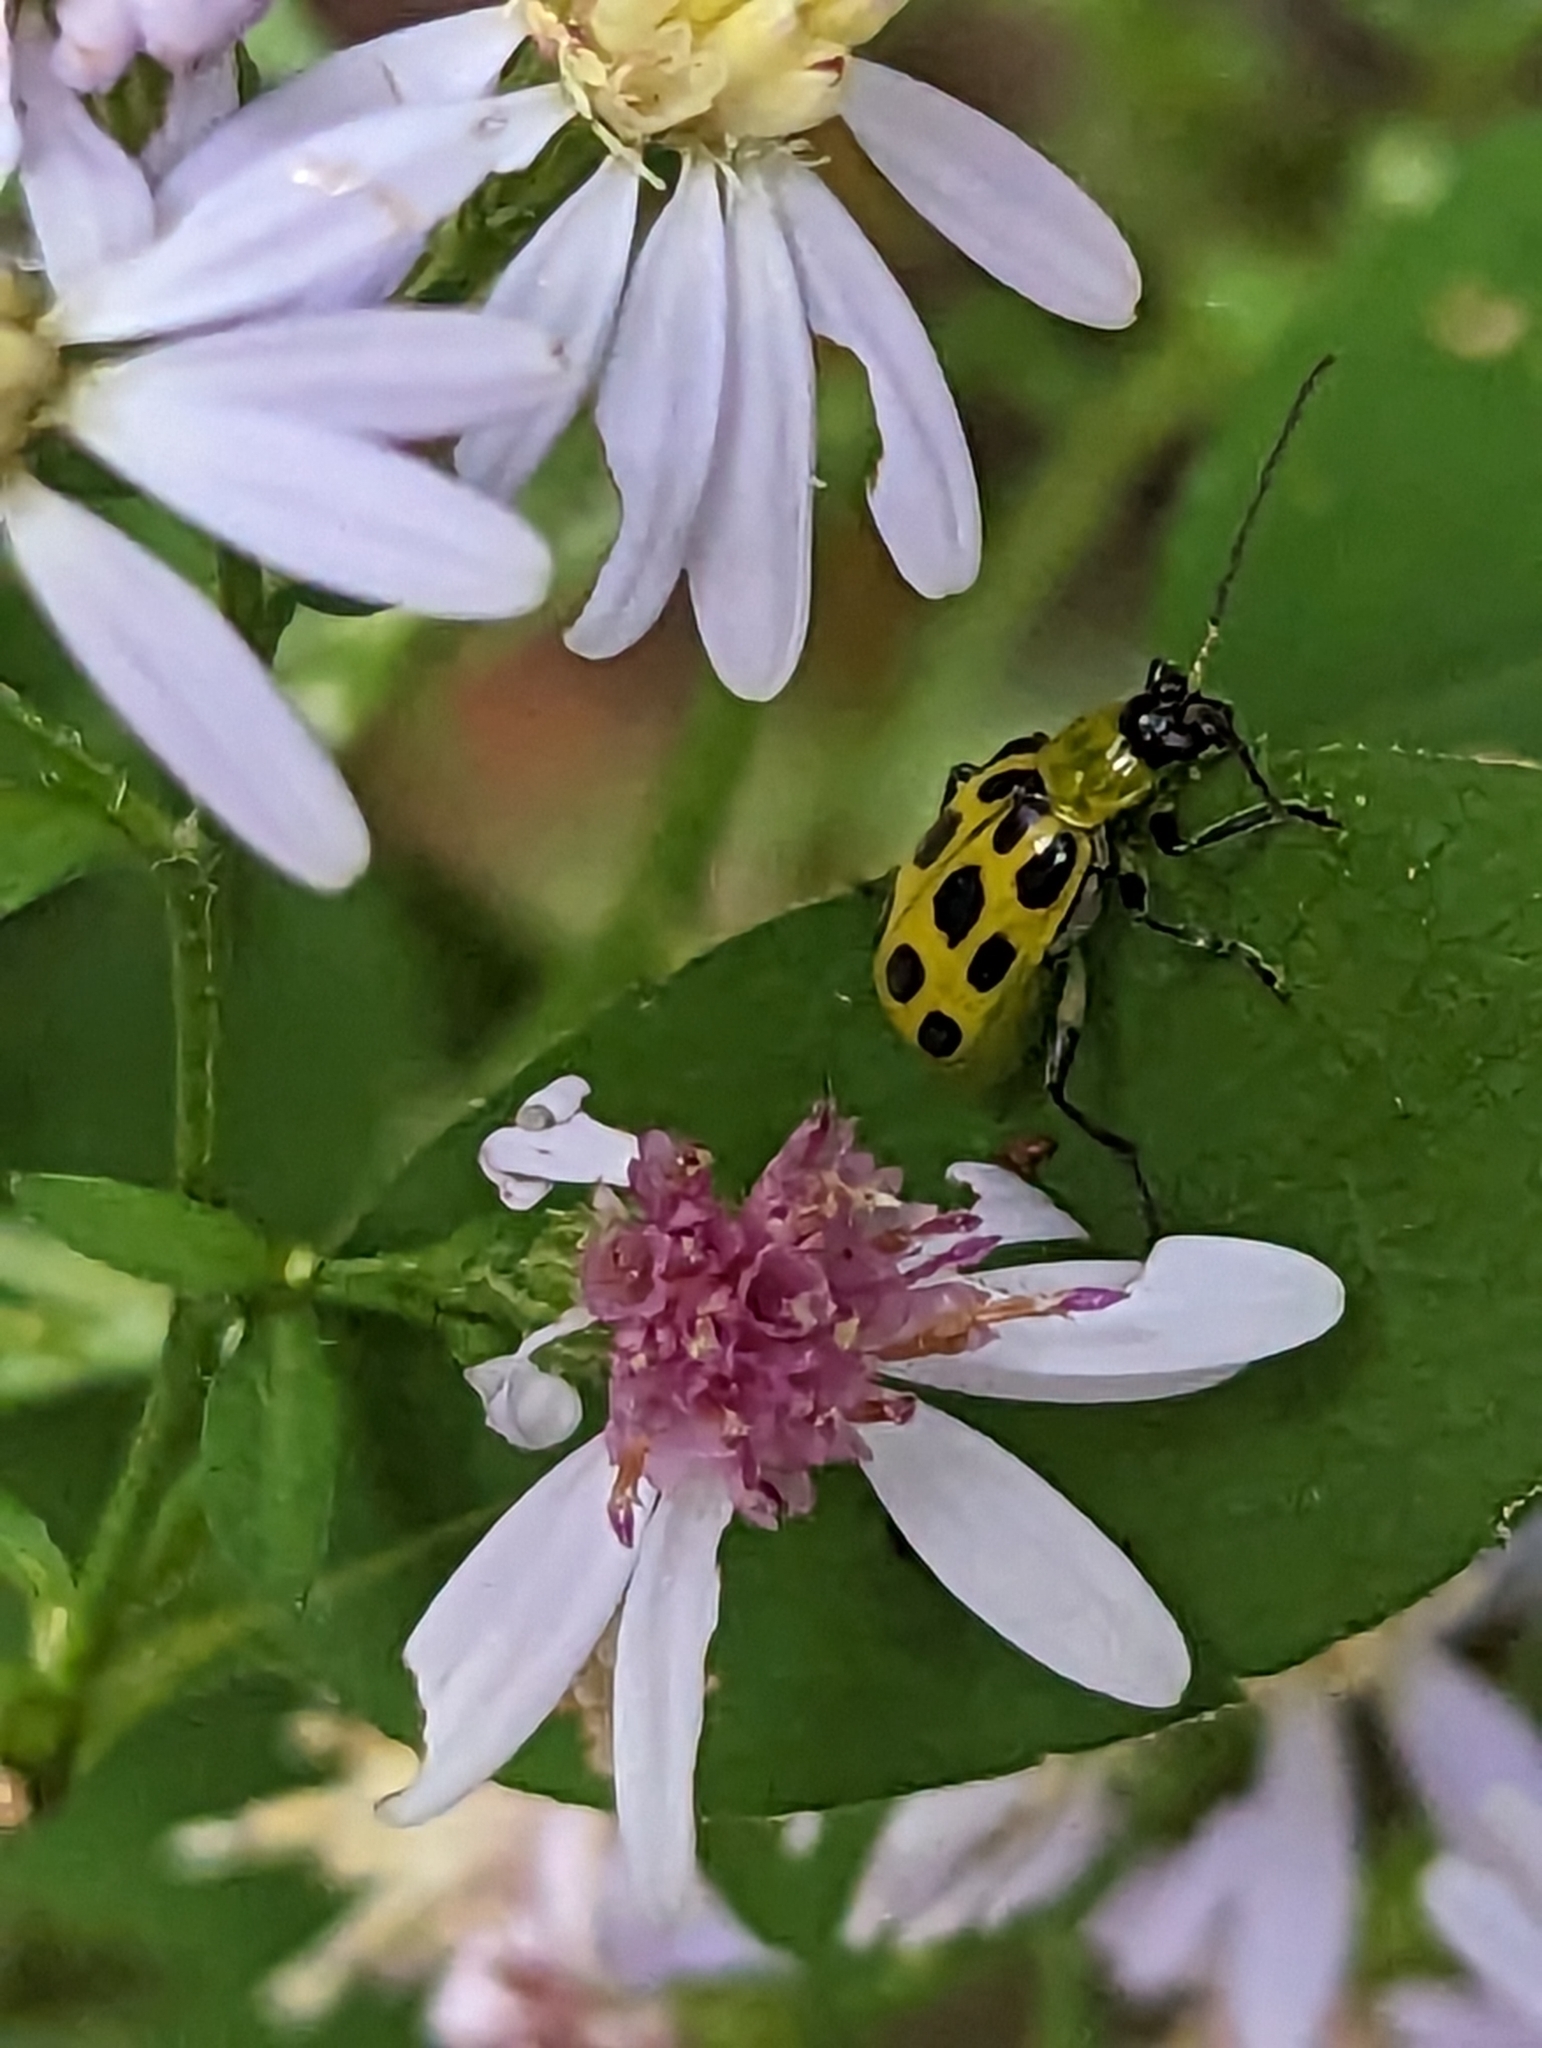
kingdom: Animalia
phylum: Arthropoda
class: Insecta
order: Coleoptera
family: Chrysomelidae
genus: Diabrotica
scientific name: Diabrotica undecimpunctata
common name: Spotted cucumber beetle
